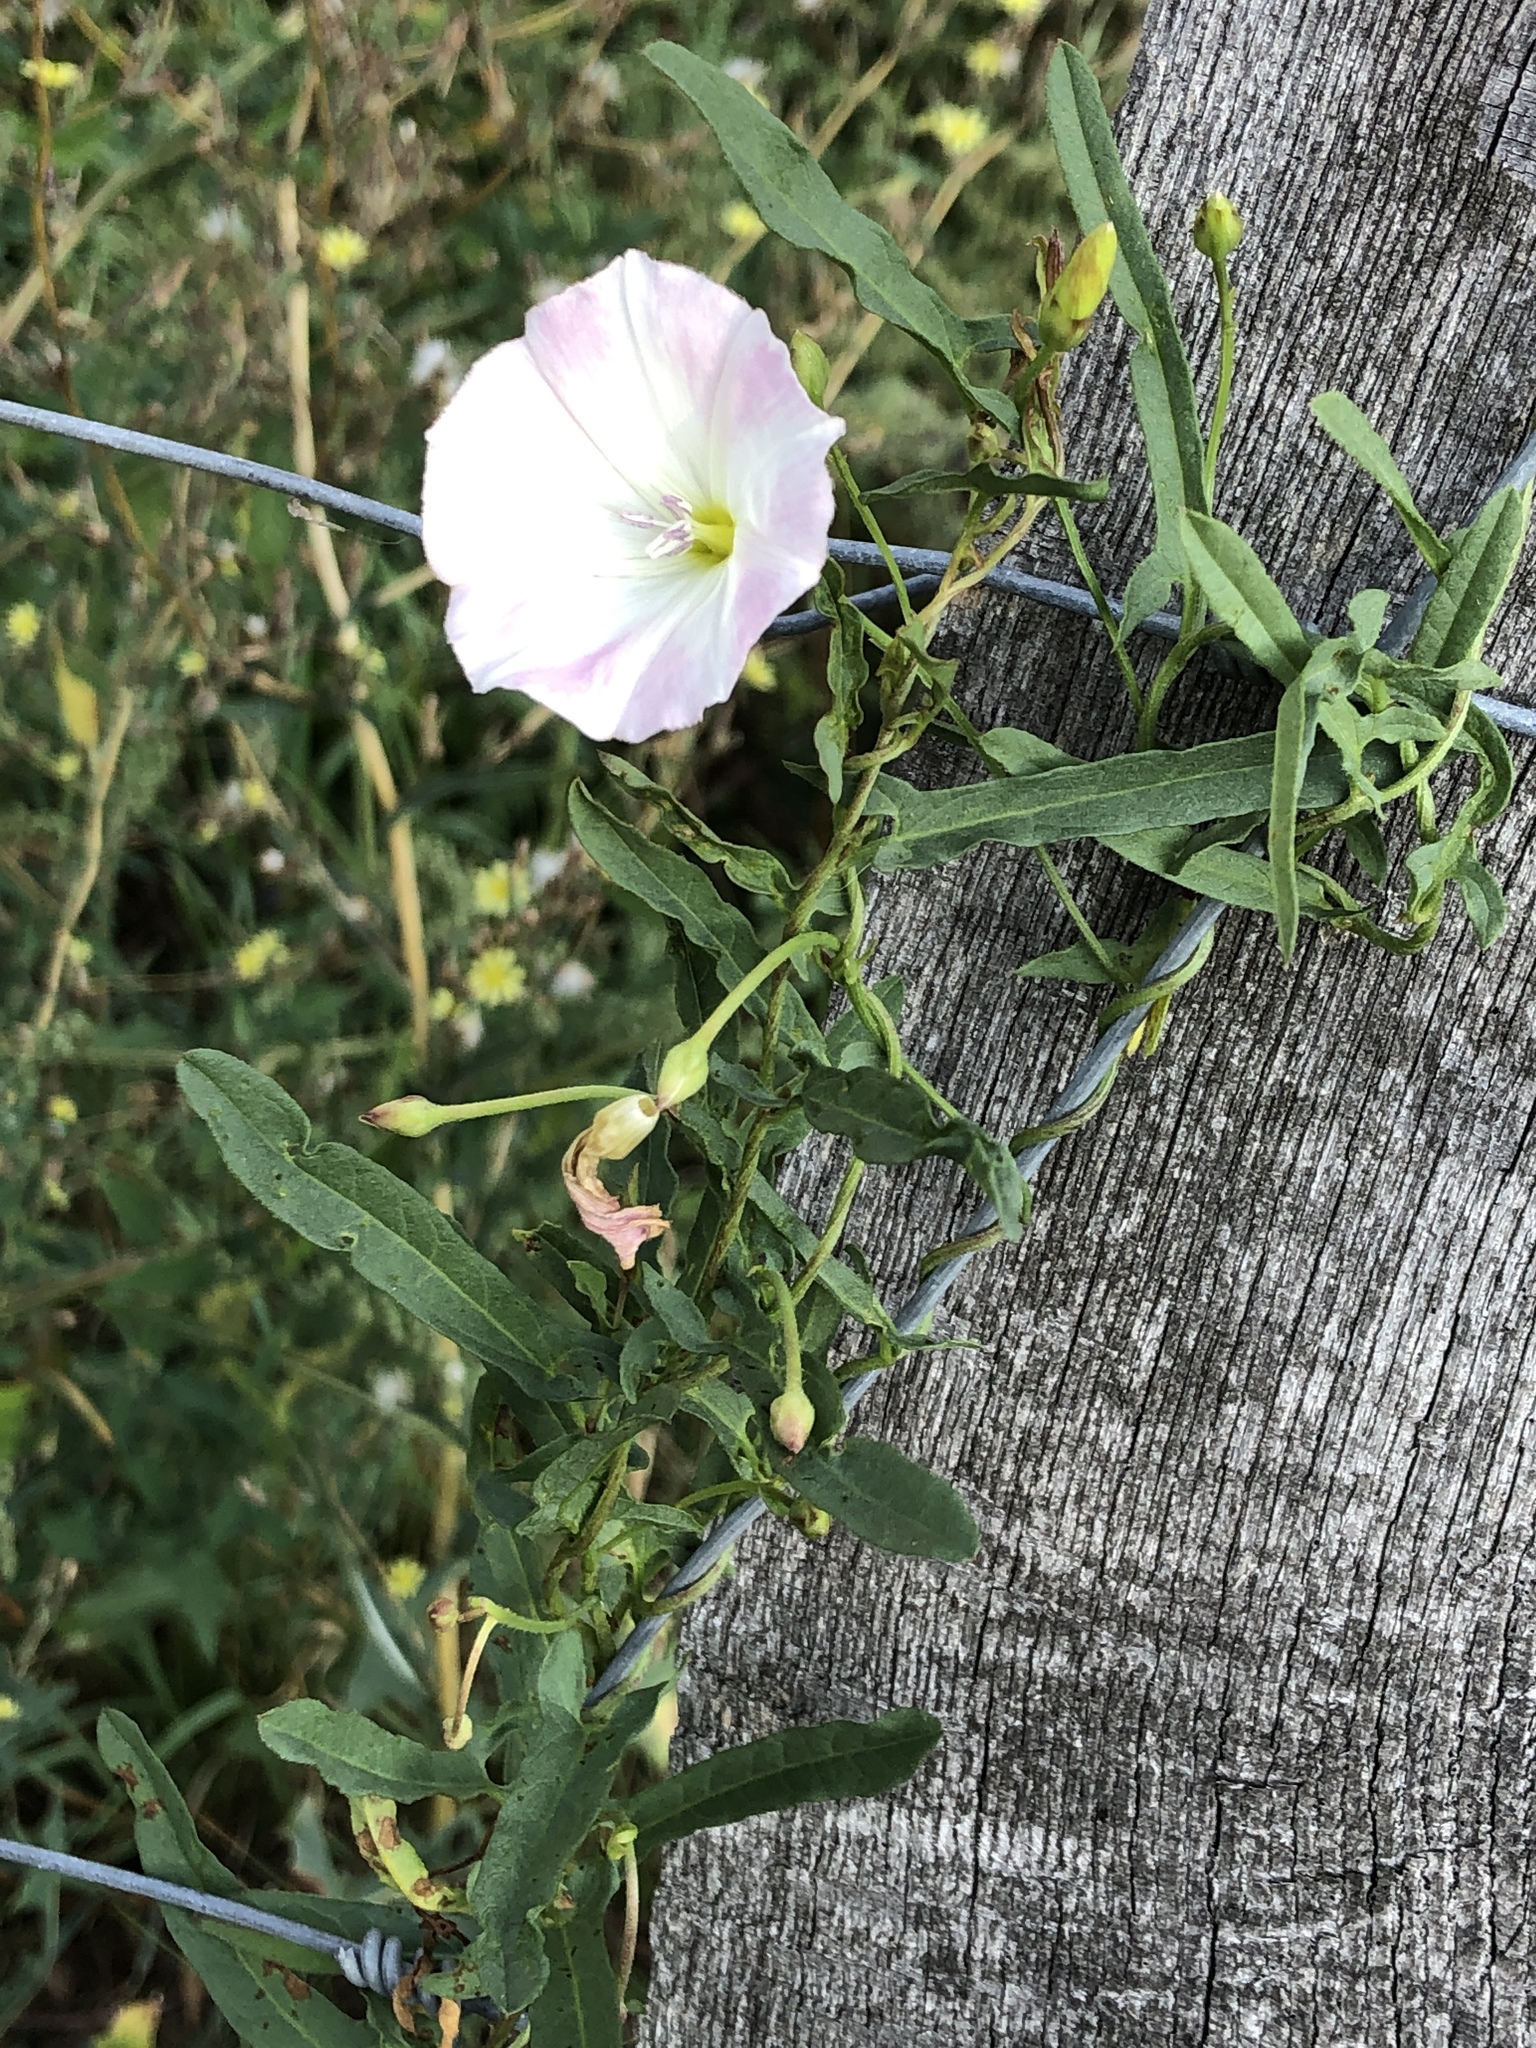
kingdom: Plantae
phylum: Tracheophyta
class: Magnoliopsida
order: Solanales
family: Convolvulaceae
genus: Convolvulus
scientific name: Convolvulus arvensis
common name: Field bindweed
